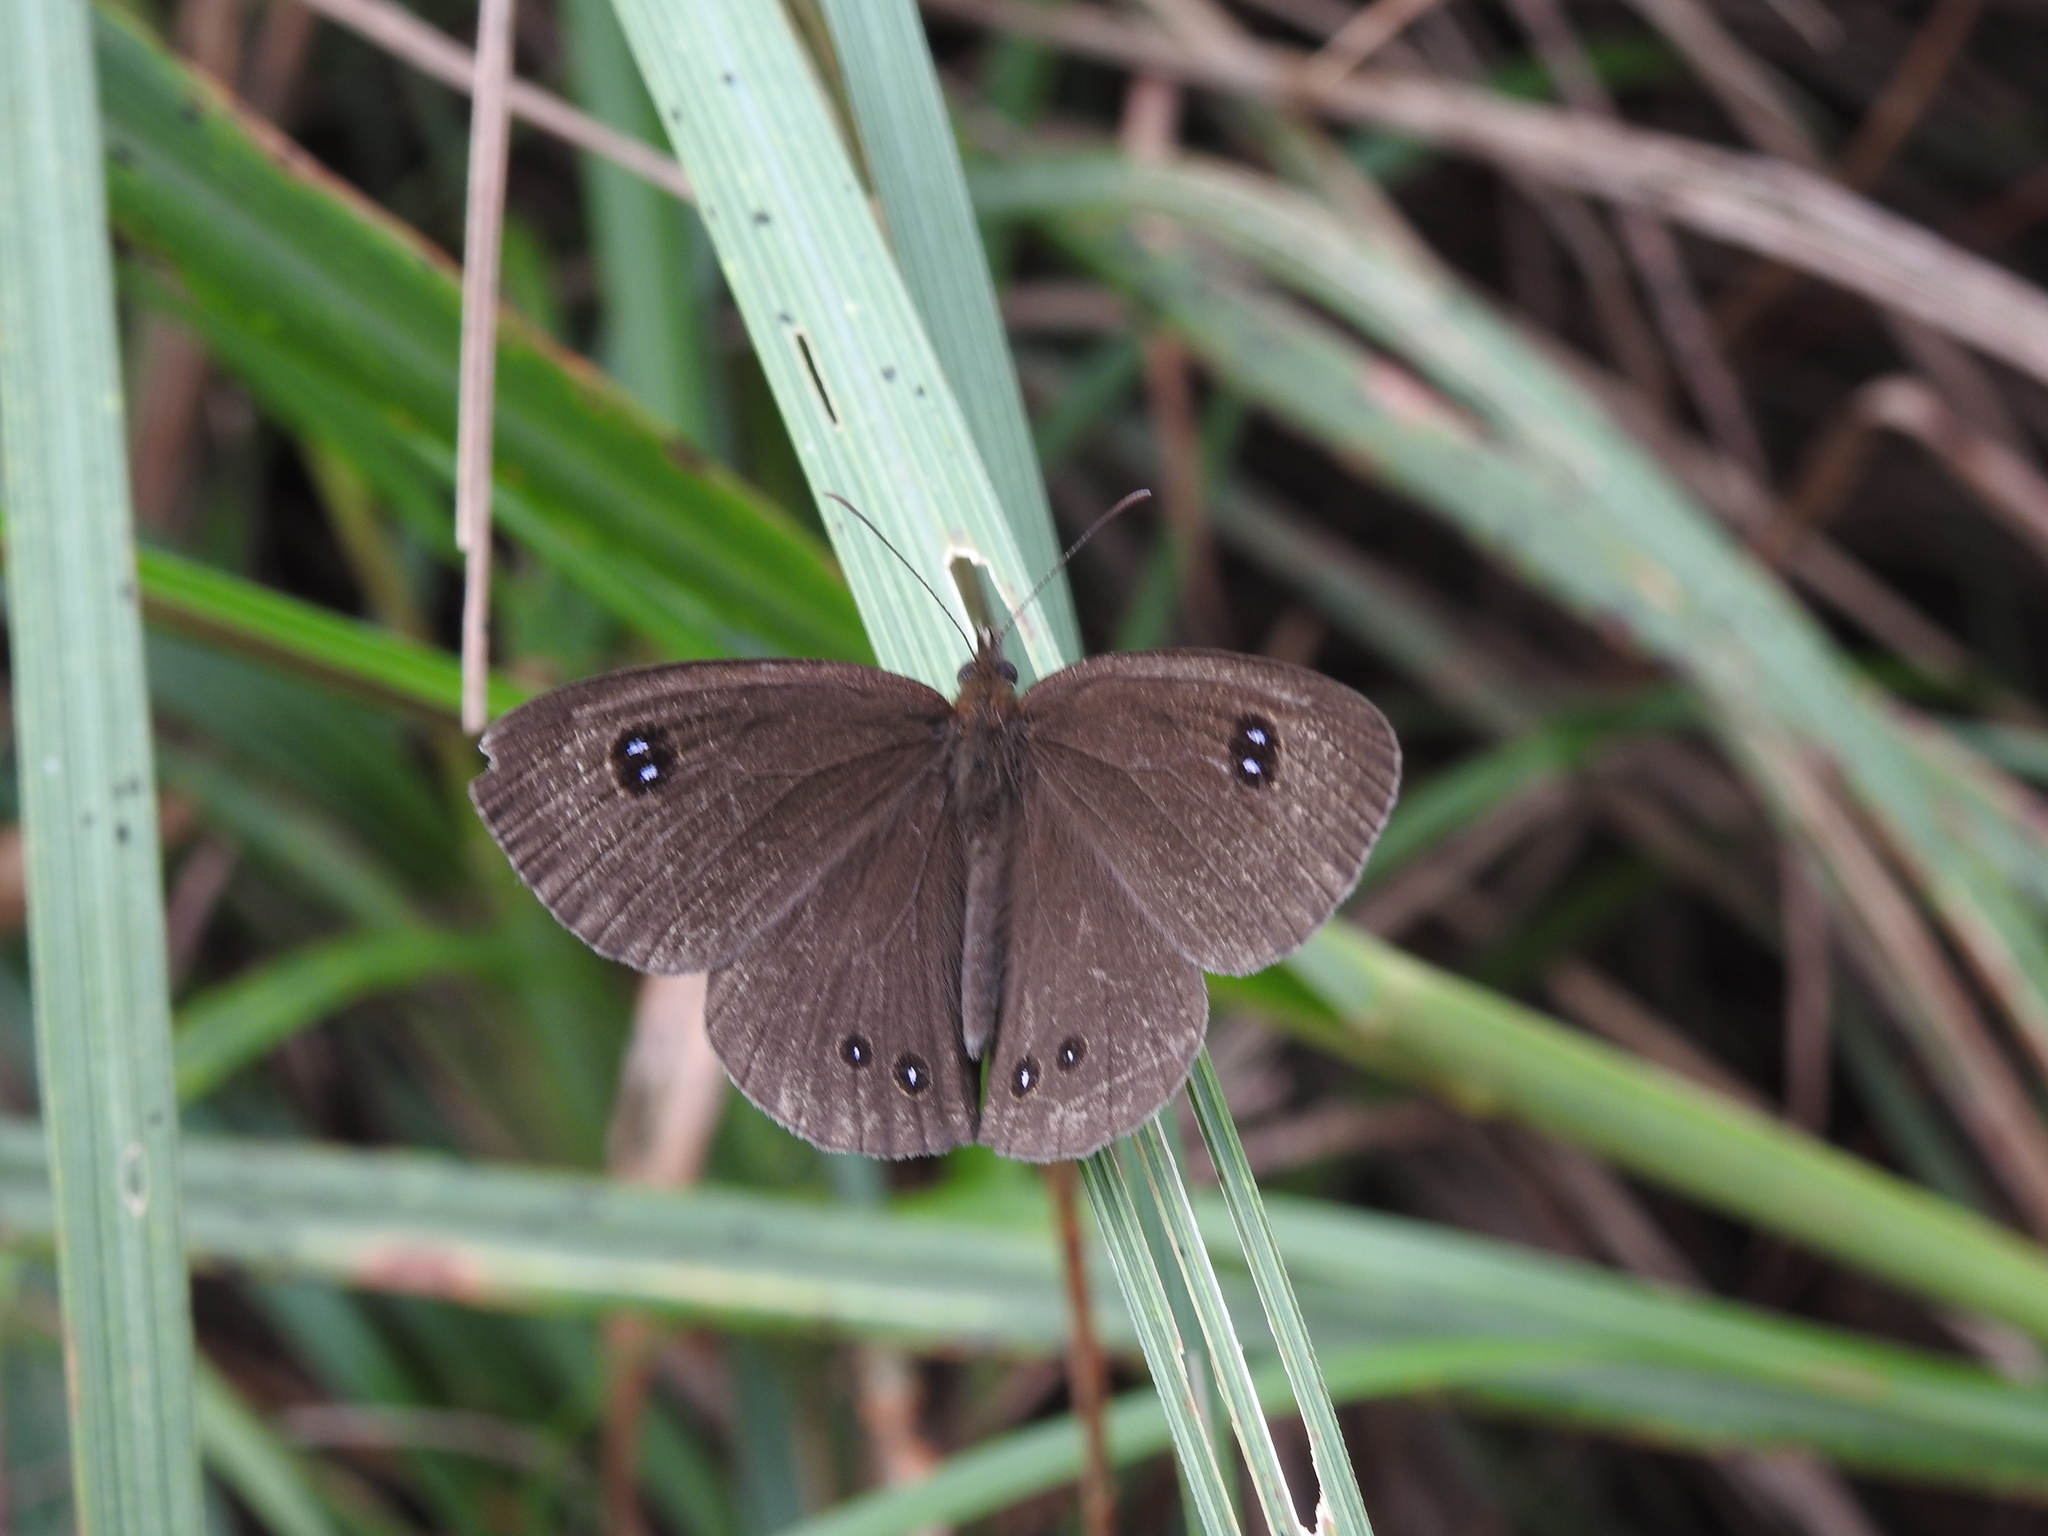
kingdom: Animalia
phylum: Arthropoda
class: Insecta
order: Lepidoptera
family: Nymphalidae
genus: Ypthima
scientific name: Ypthima ypthimoides
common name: Palni four-ring
